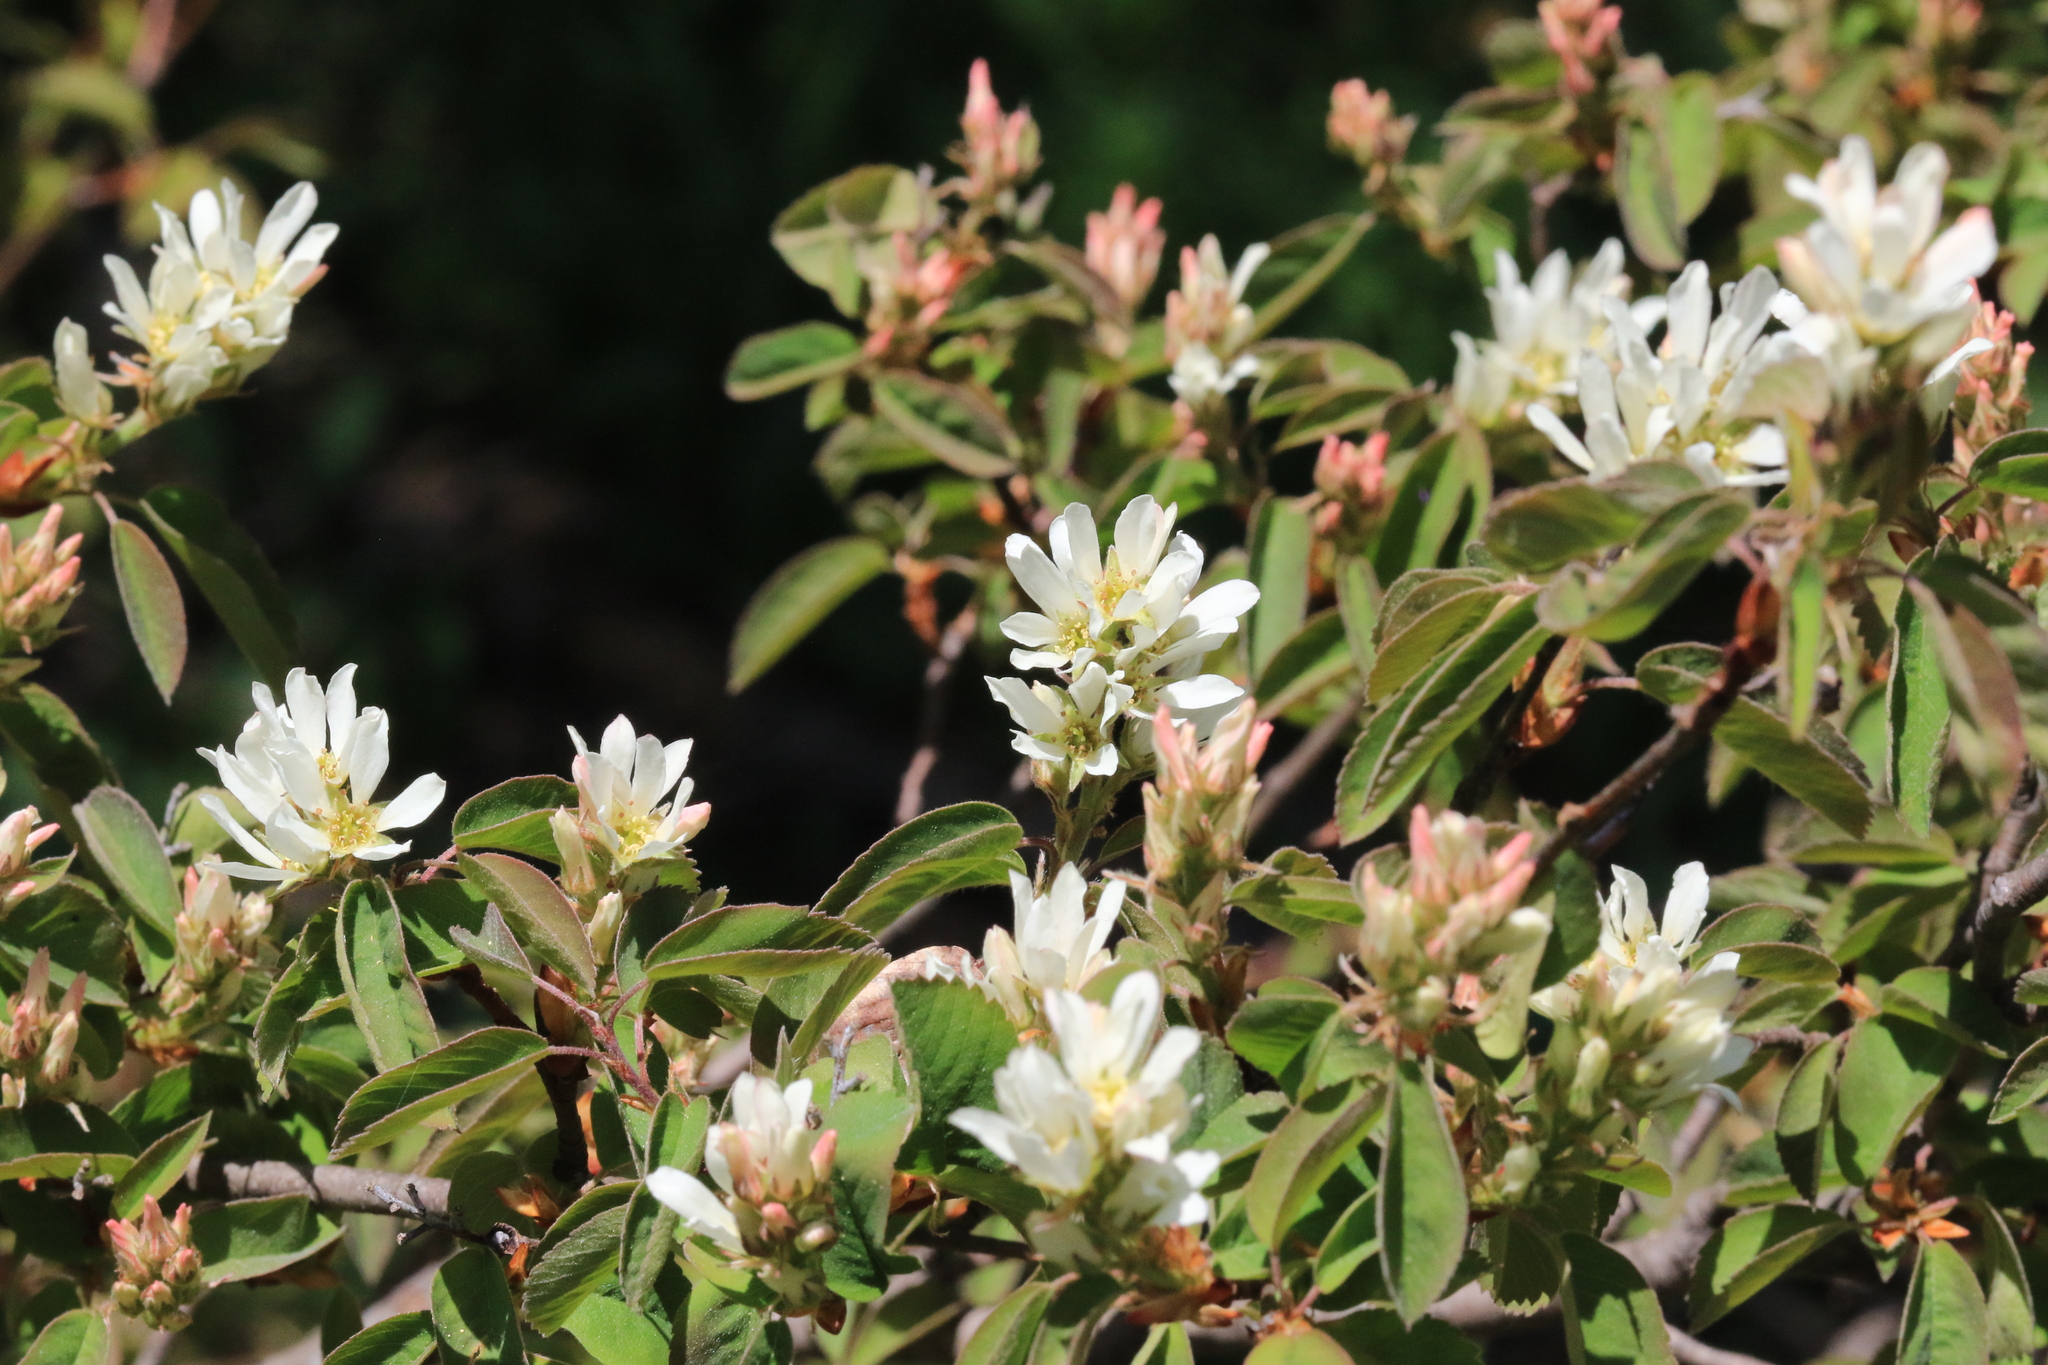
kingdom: Plantae
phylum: Tracheophyta
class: Magnoliopsida
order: Rosales
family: Rosaceae
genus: Amelanchier
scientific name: Amelanchier alnifolia
